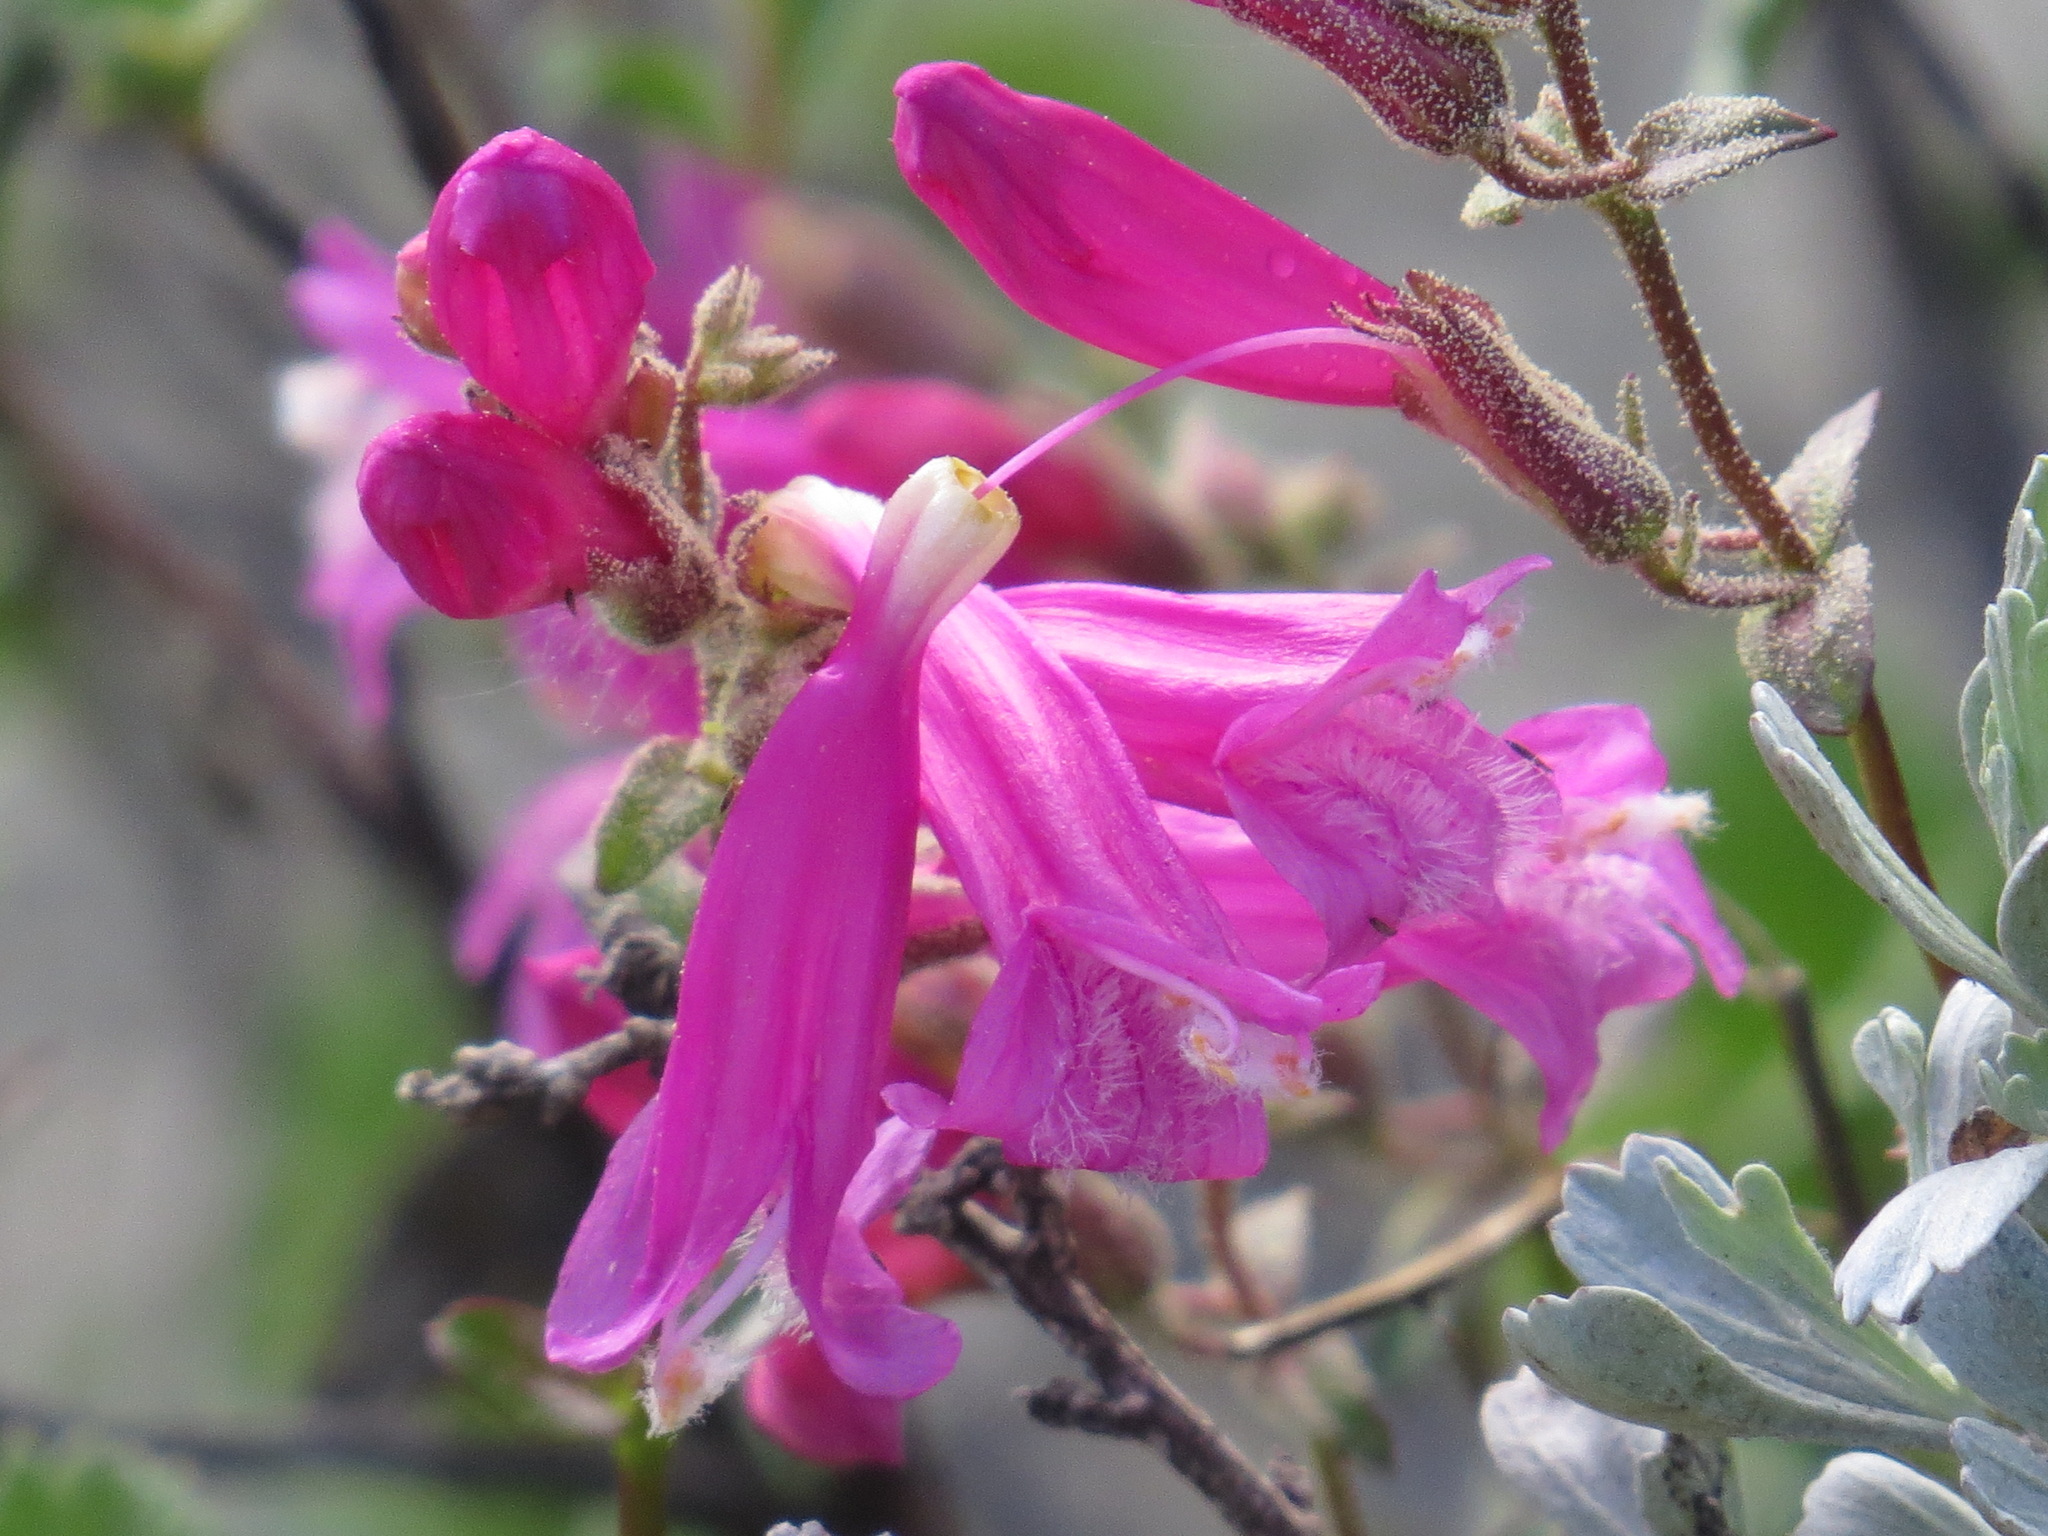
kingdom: Plantae
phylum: Tracheophyta
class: Magnoliopsida
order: Lamiales
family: Plantaginaceae
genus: Penstemon
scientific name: Penstemon newberryi
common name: Mountain-pride
